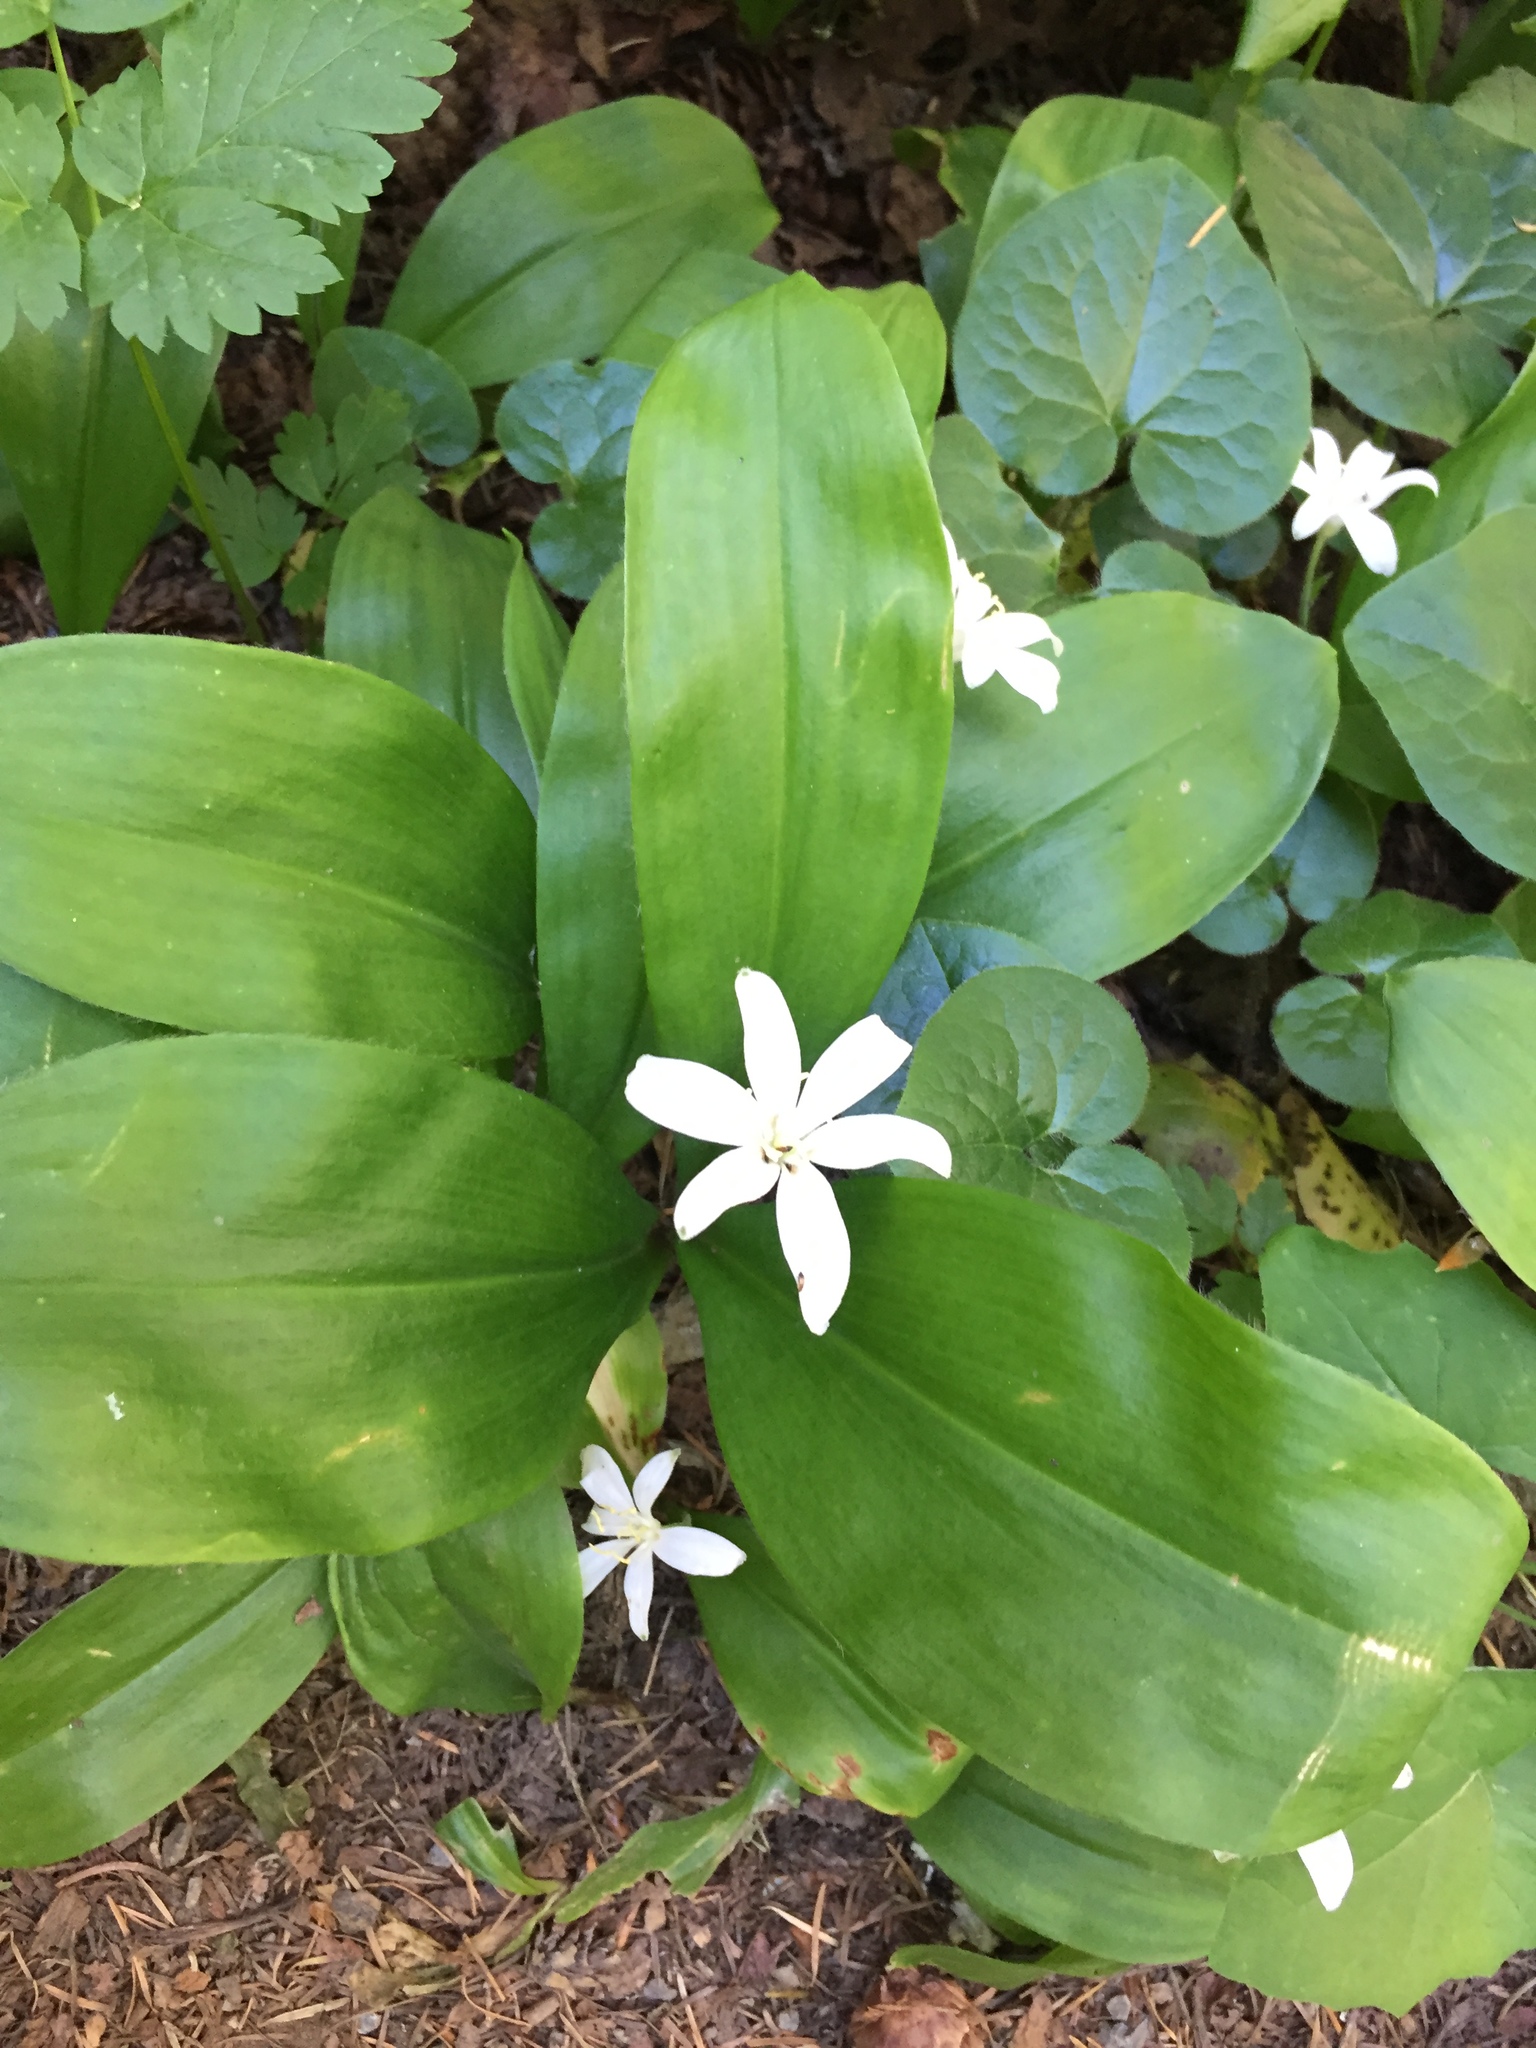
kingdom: Plantae
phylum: Tracheophyta
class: Liliopsida
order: Liliales
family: Liliaceae
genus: Clintonia
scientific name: Clintonia uniflora
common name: Queen's cup
